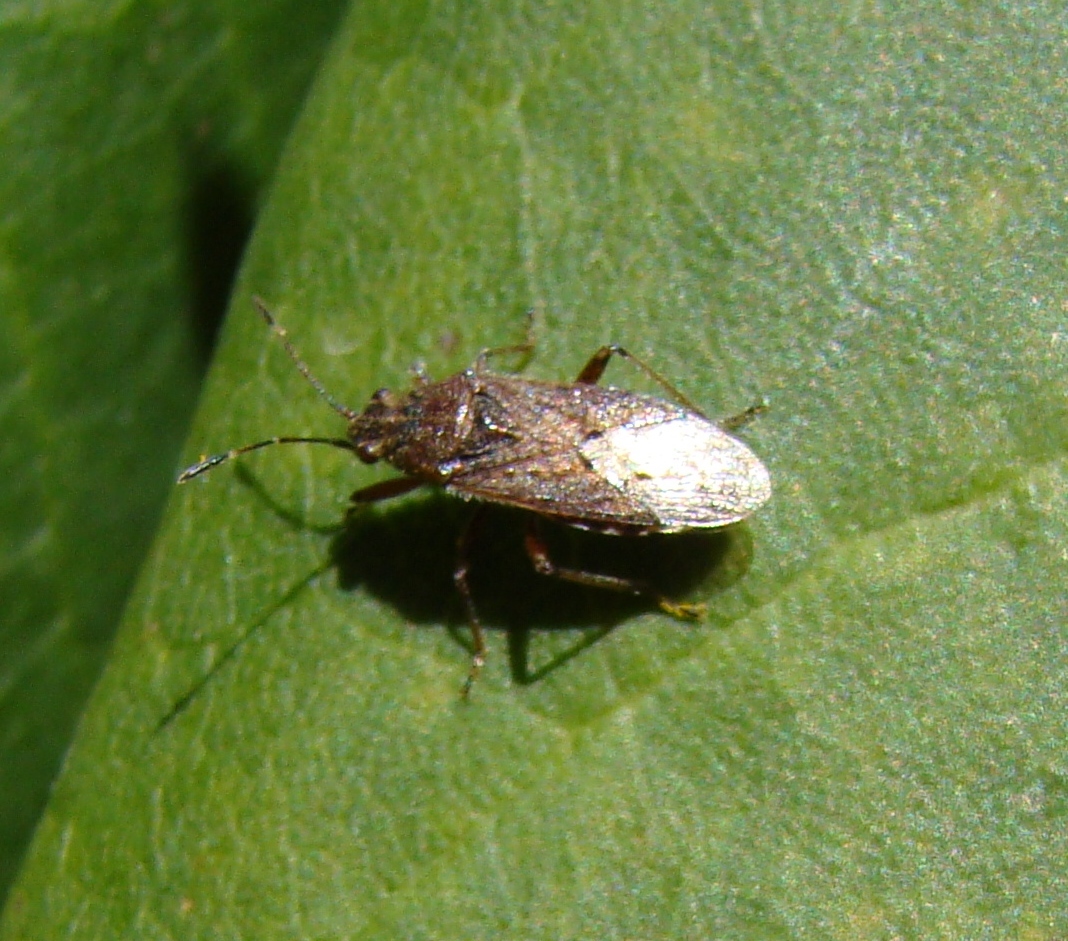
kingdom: Animalia
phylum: Arthropoda
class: Insecta
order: Hemiptera
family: Lygaeidae
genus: Rhypodes
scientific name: Rhypodes clavicornis
